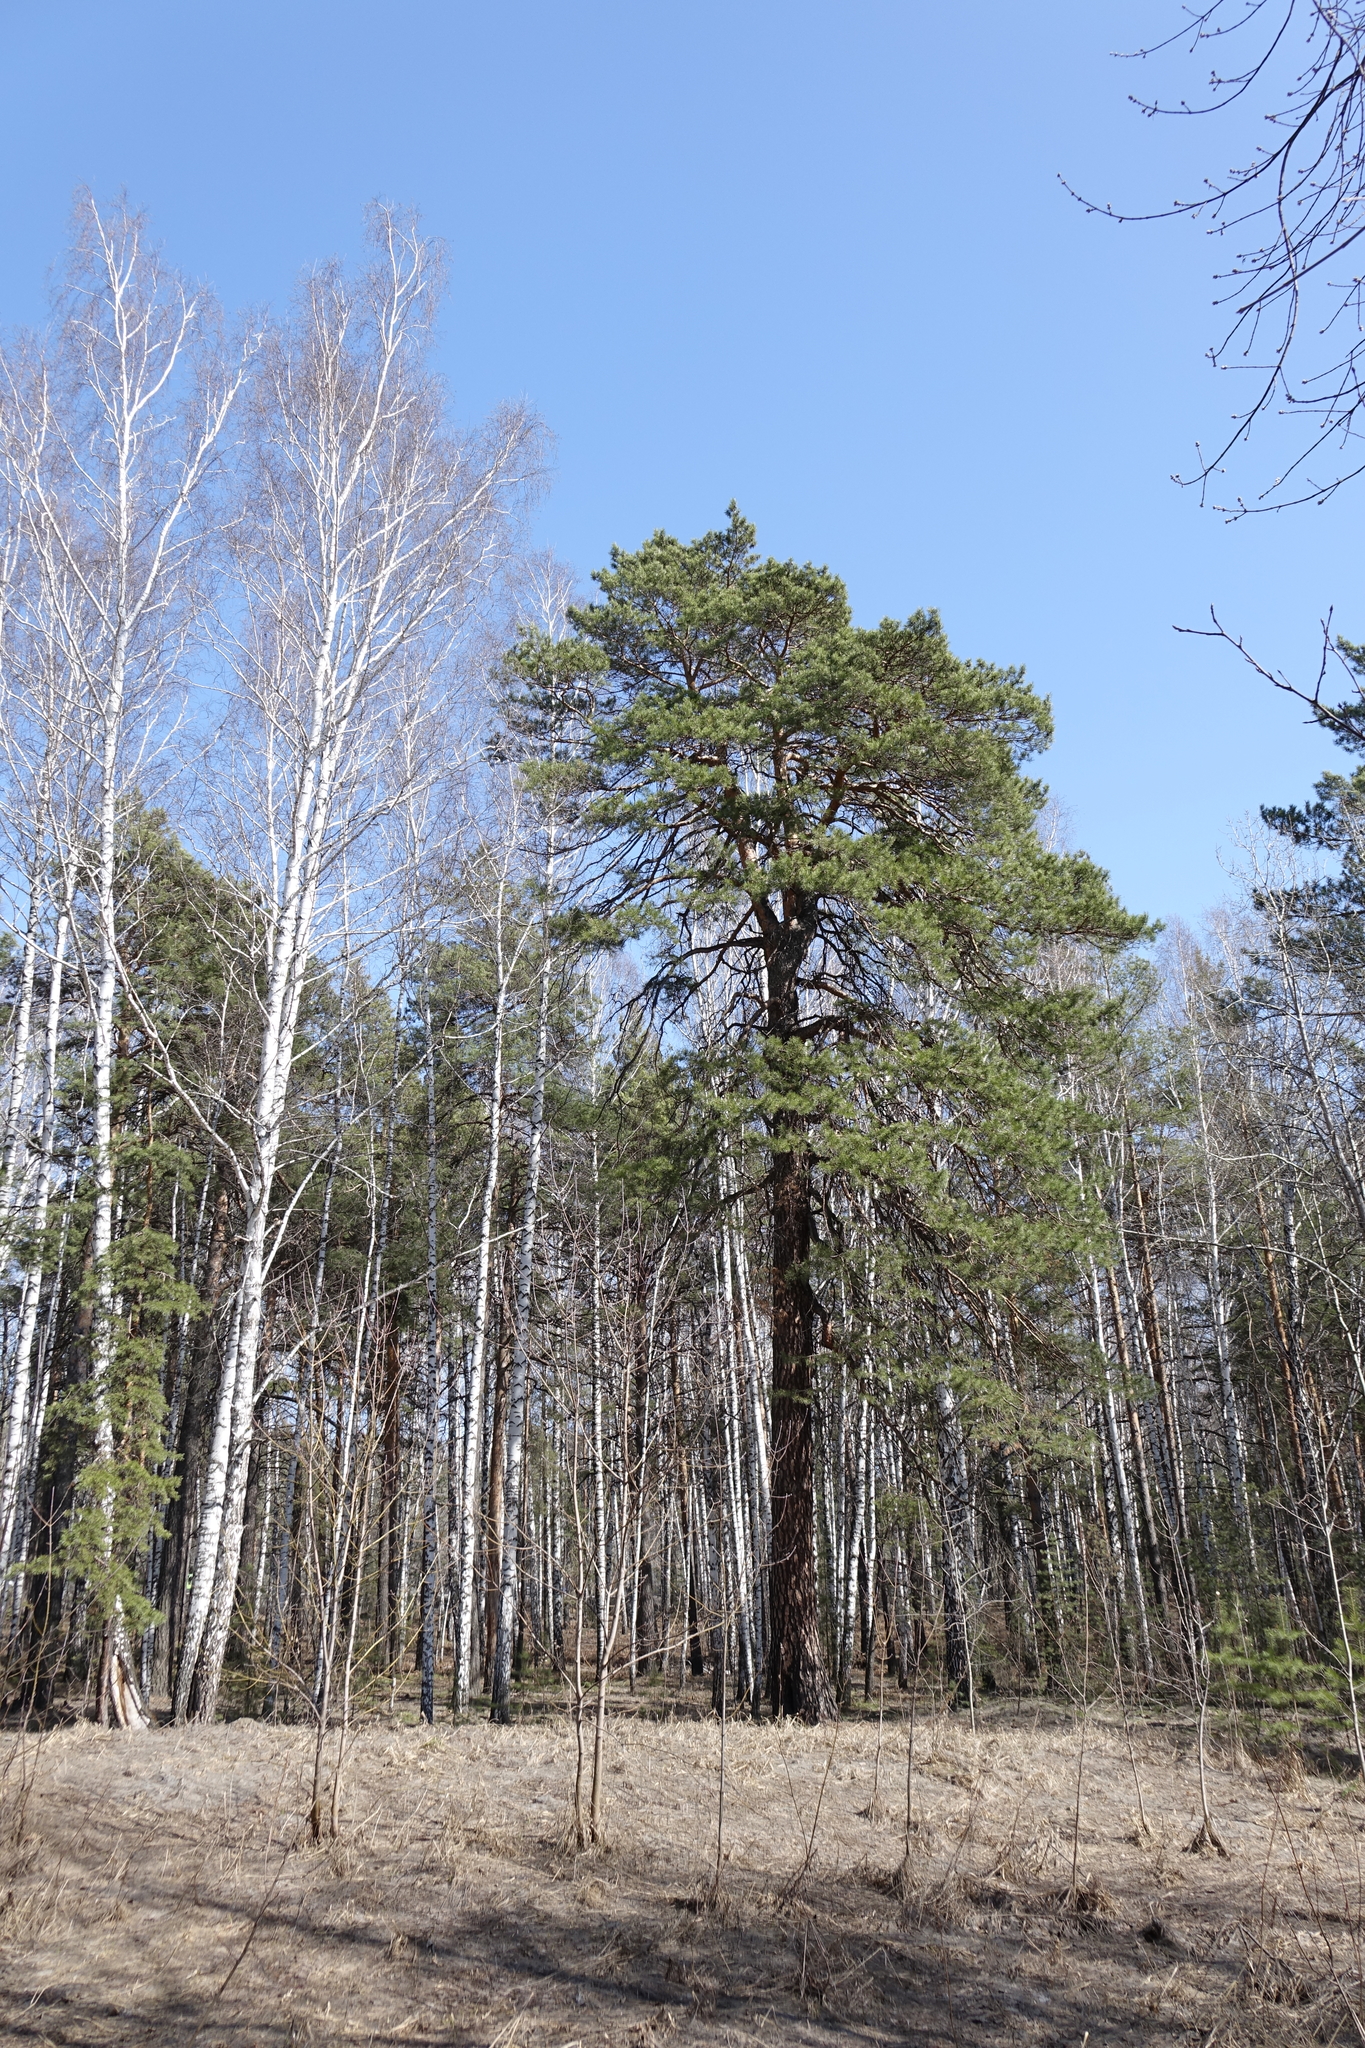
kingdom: Plantae
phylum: Tracheophyta
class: Pinopsida
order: Pinales
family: Pinaceae
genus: Pinus
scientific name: Pinus sylvestris
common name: Scots pine
